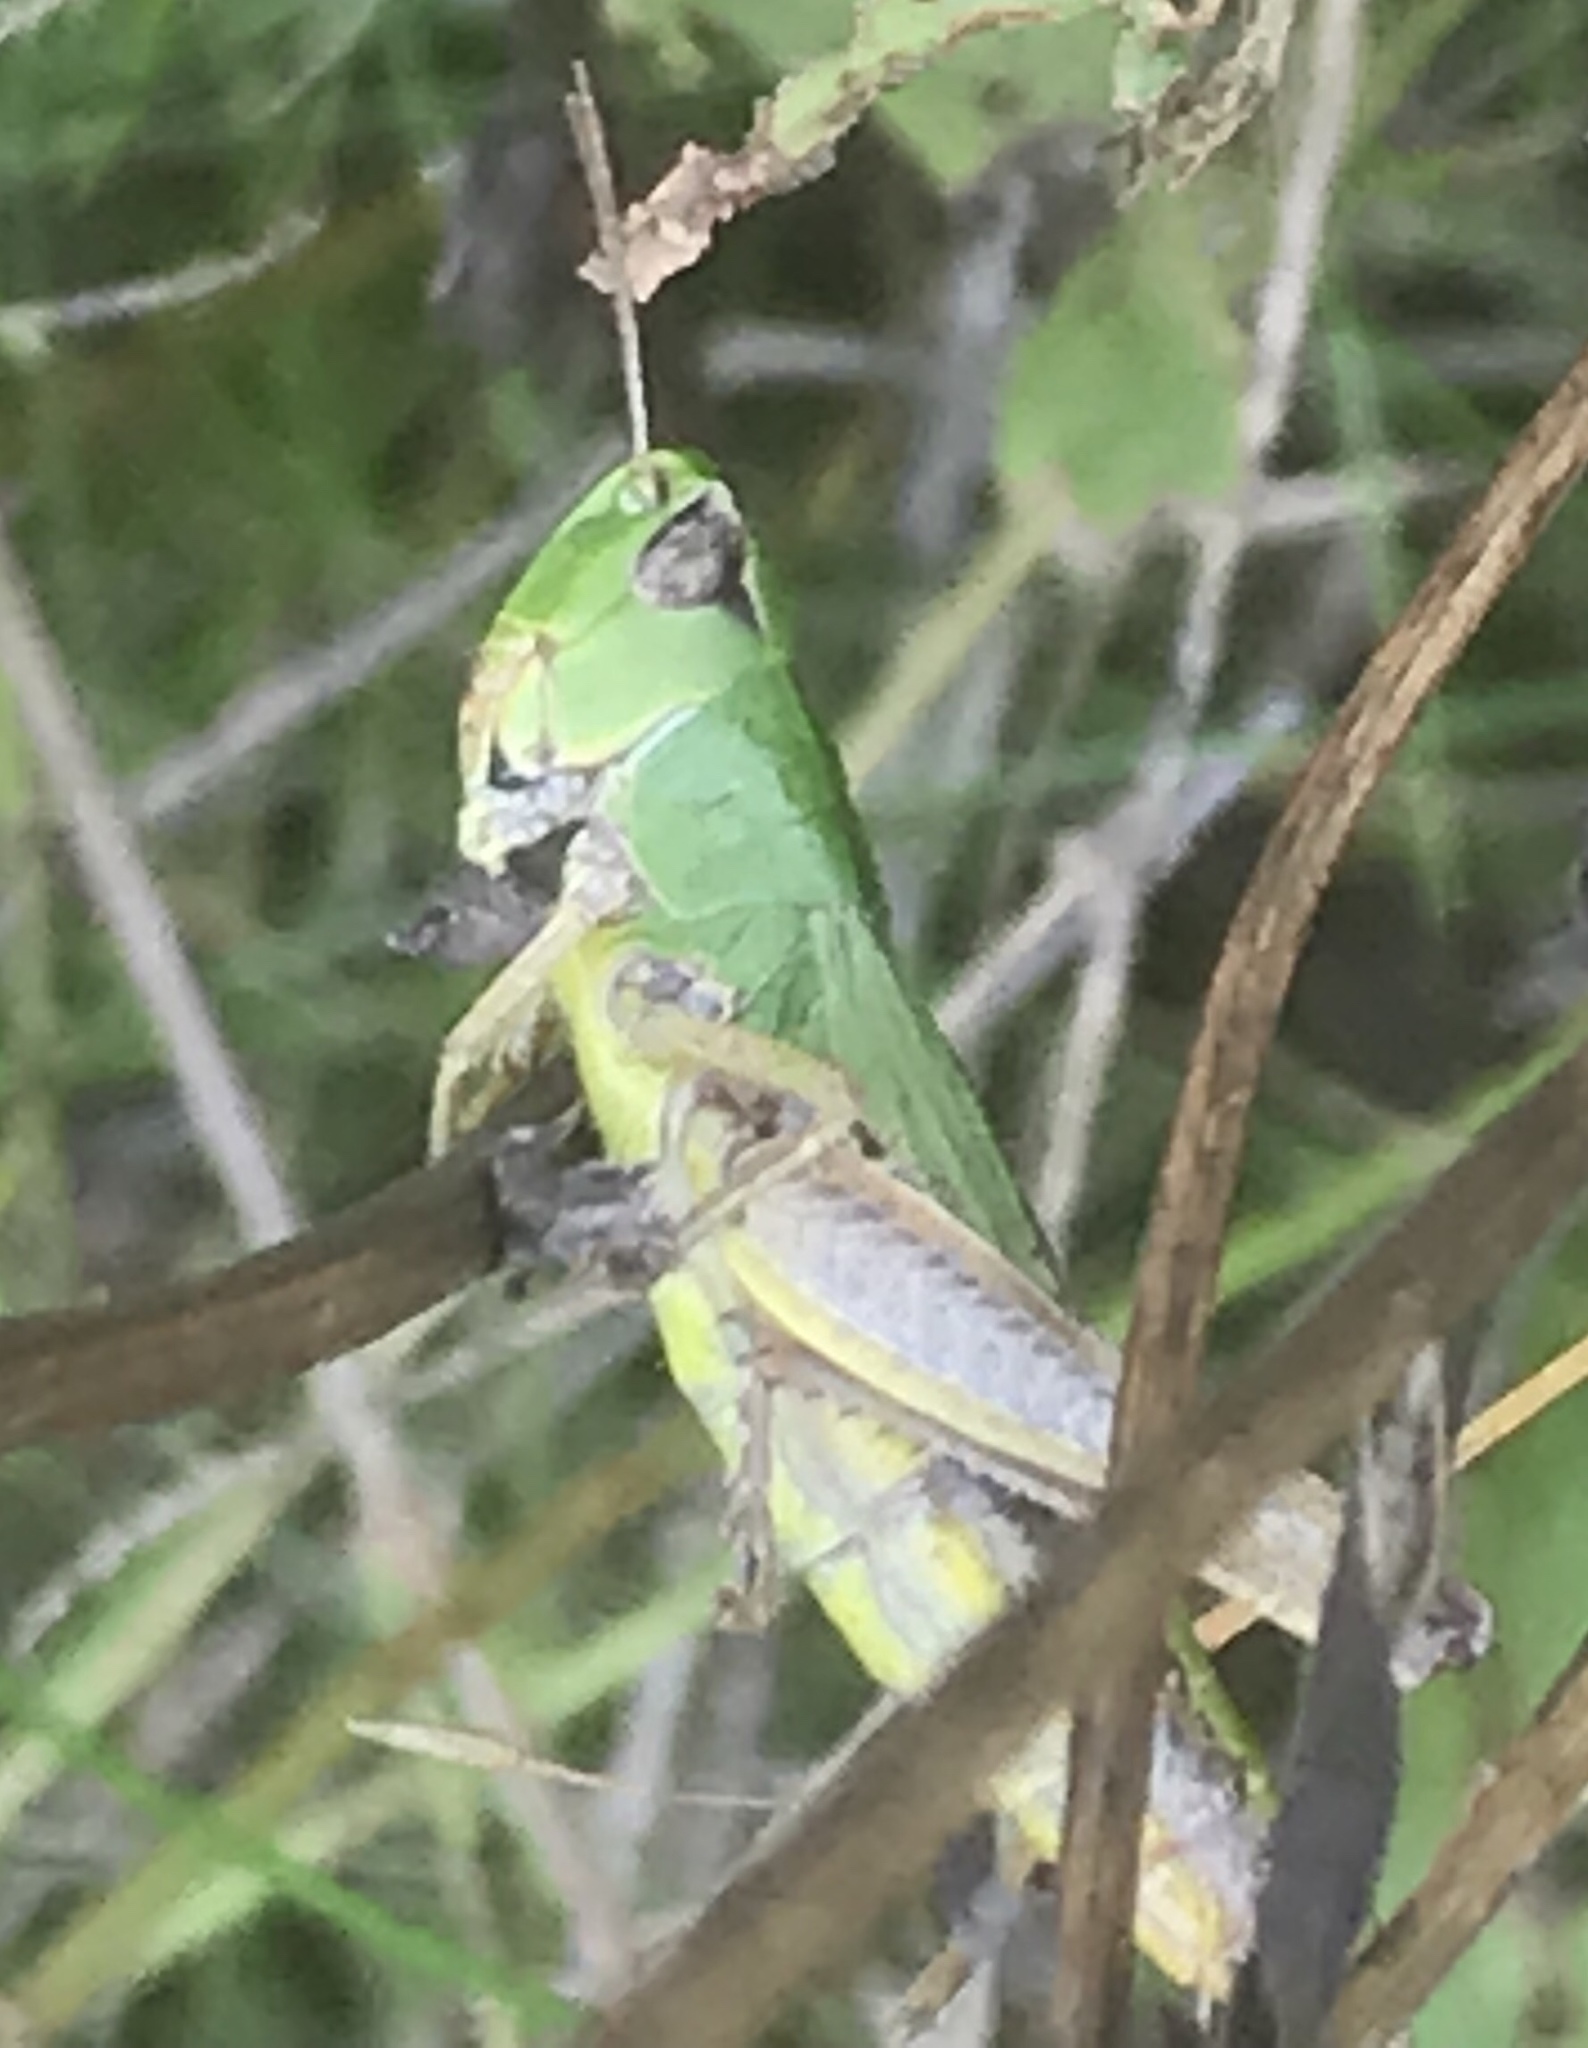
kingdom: Animalia
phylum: Arthropoda
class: Insecta
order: Orthoptera
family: Acrididae
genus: Pseudochorthippus
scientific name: Pseudochorthippus parallelus
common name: Meadow grasshopper
